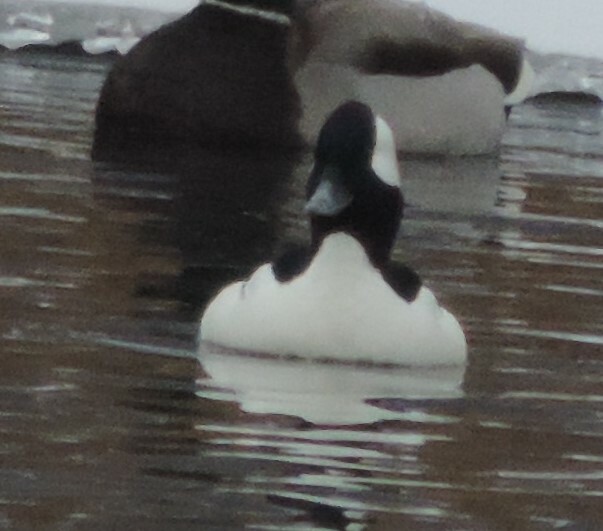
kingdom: Animalia
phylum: Chordata
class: Aves
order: Anseriformes
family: Anatidae
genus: Bucephala
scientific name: Bucephala albeola
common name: Bufflehead
